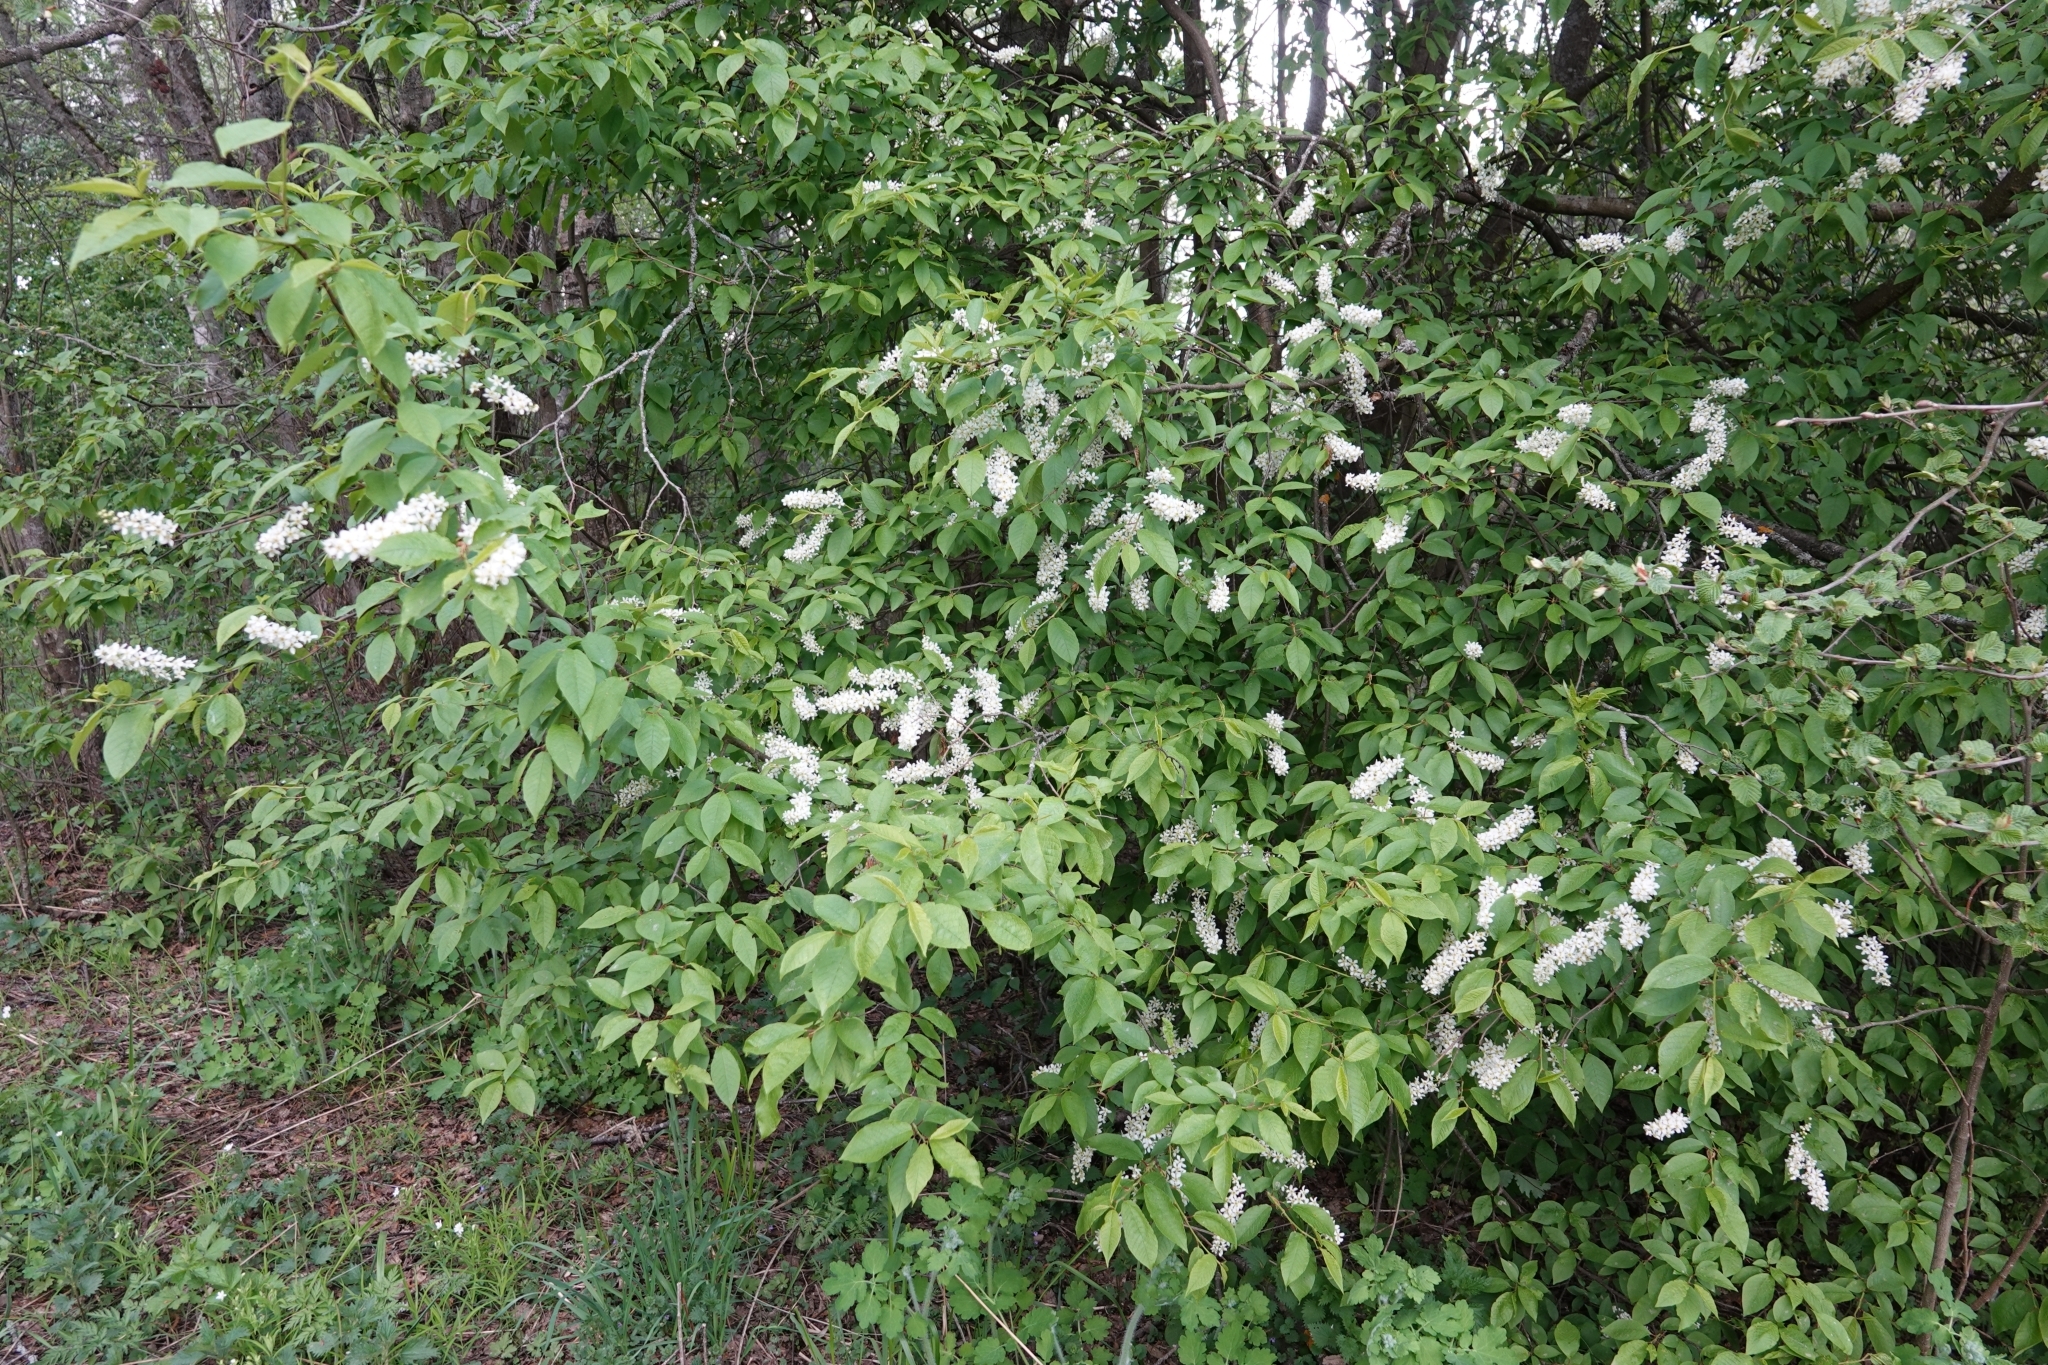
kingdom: Plantae
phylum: Tracheophyta
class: Magnoliopsida
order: Rosales
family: Rosaceae
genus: Prunus
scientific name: Prunus padus
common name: Bird cherry
